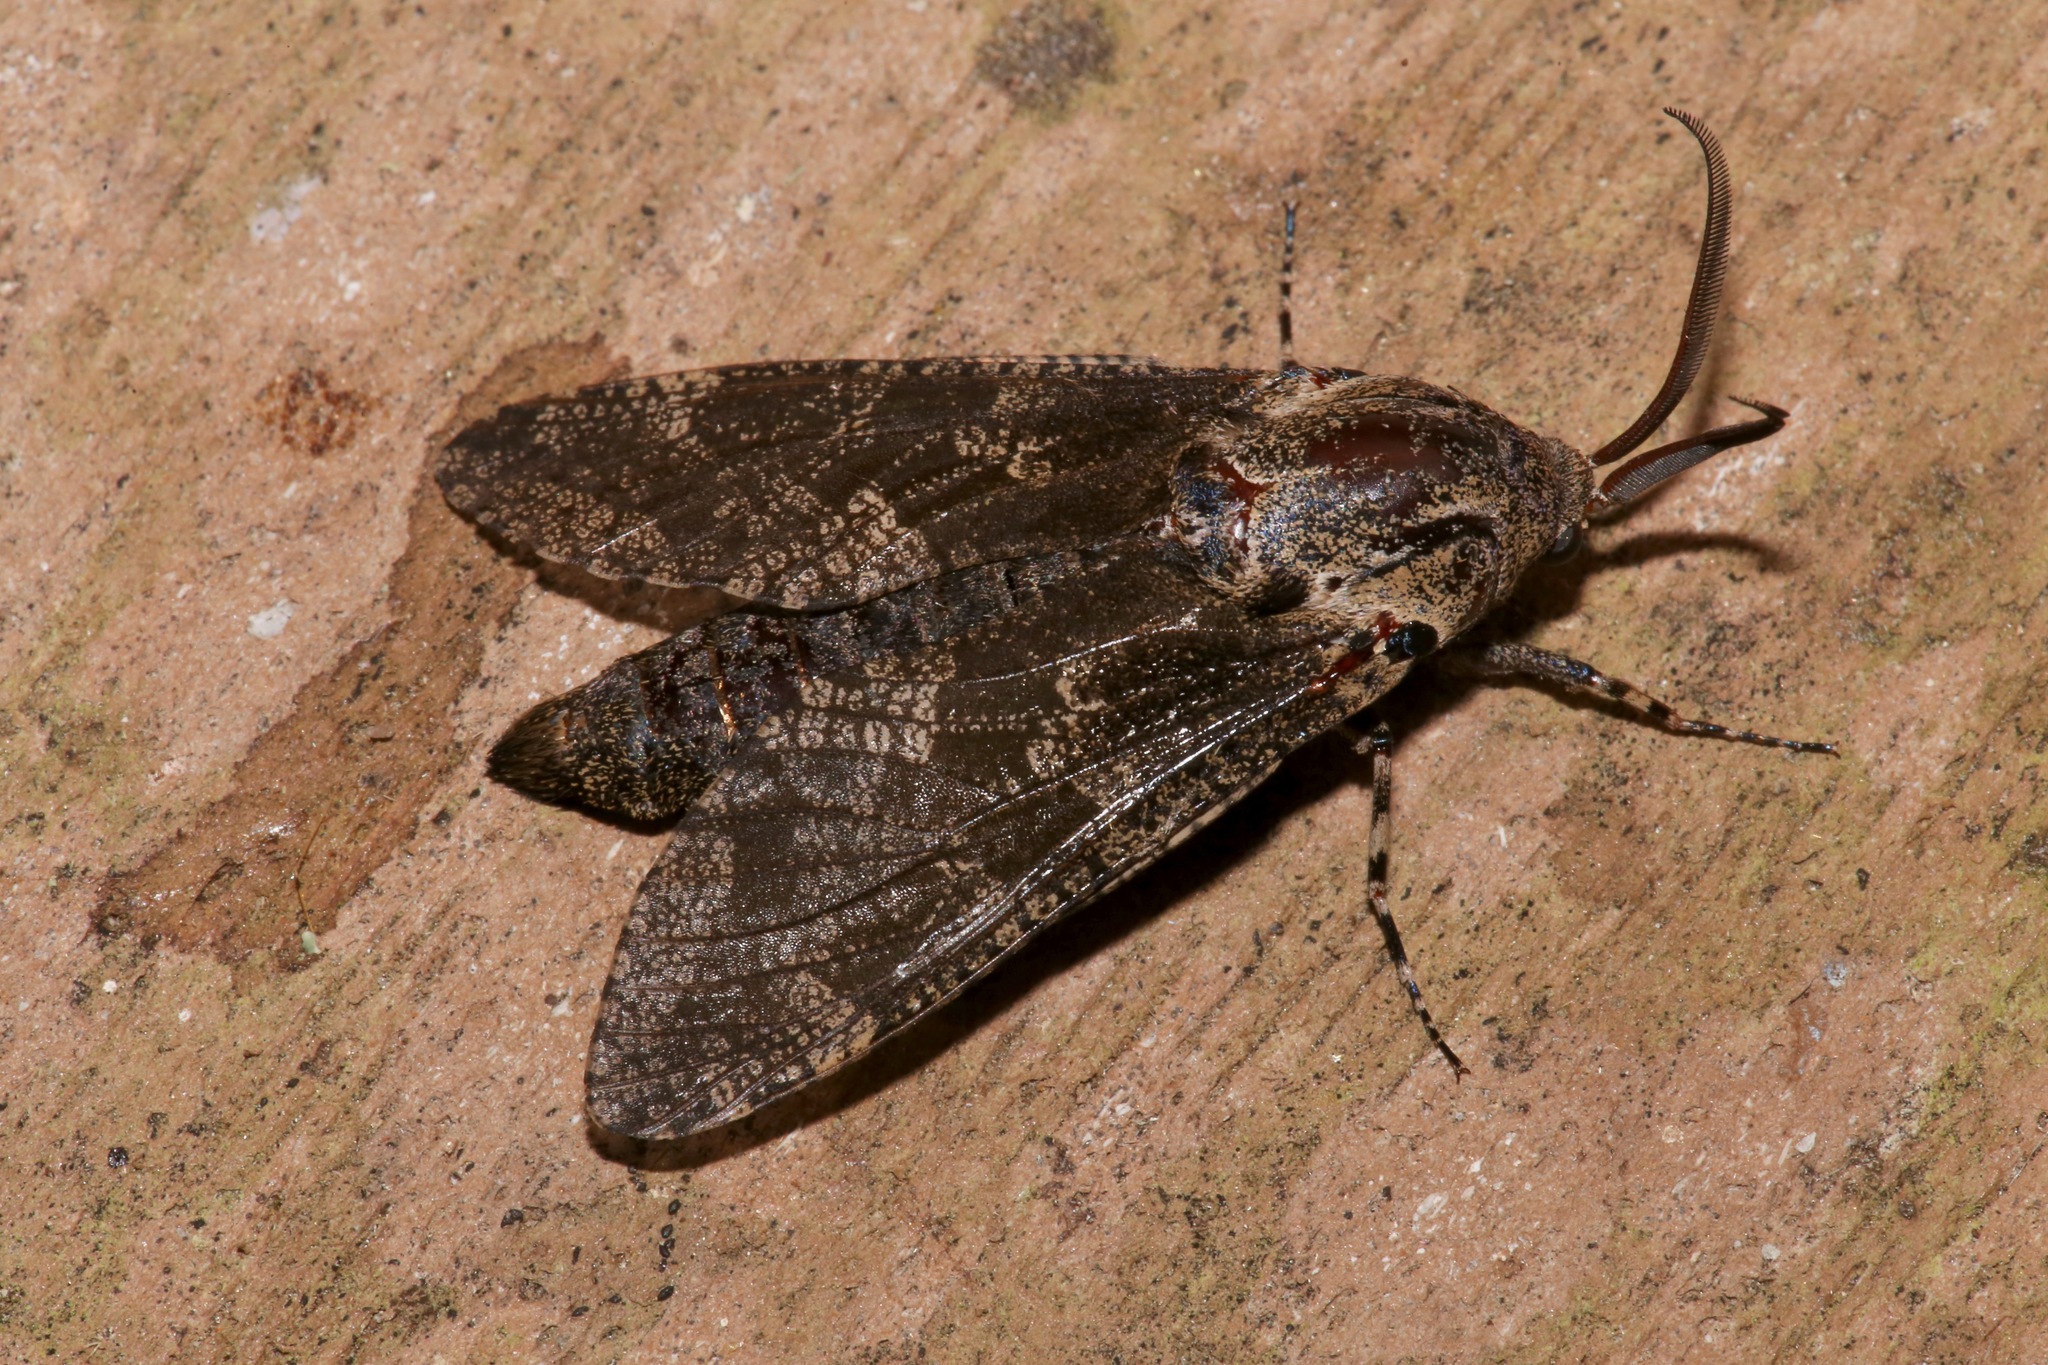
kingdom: Animalia
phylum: Arthropoda
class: Insecta
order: Lepidoptera
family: Cossidae
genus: Prionoxystus
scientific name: Prionoxystus robiniae
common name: Carpenterworm
